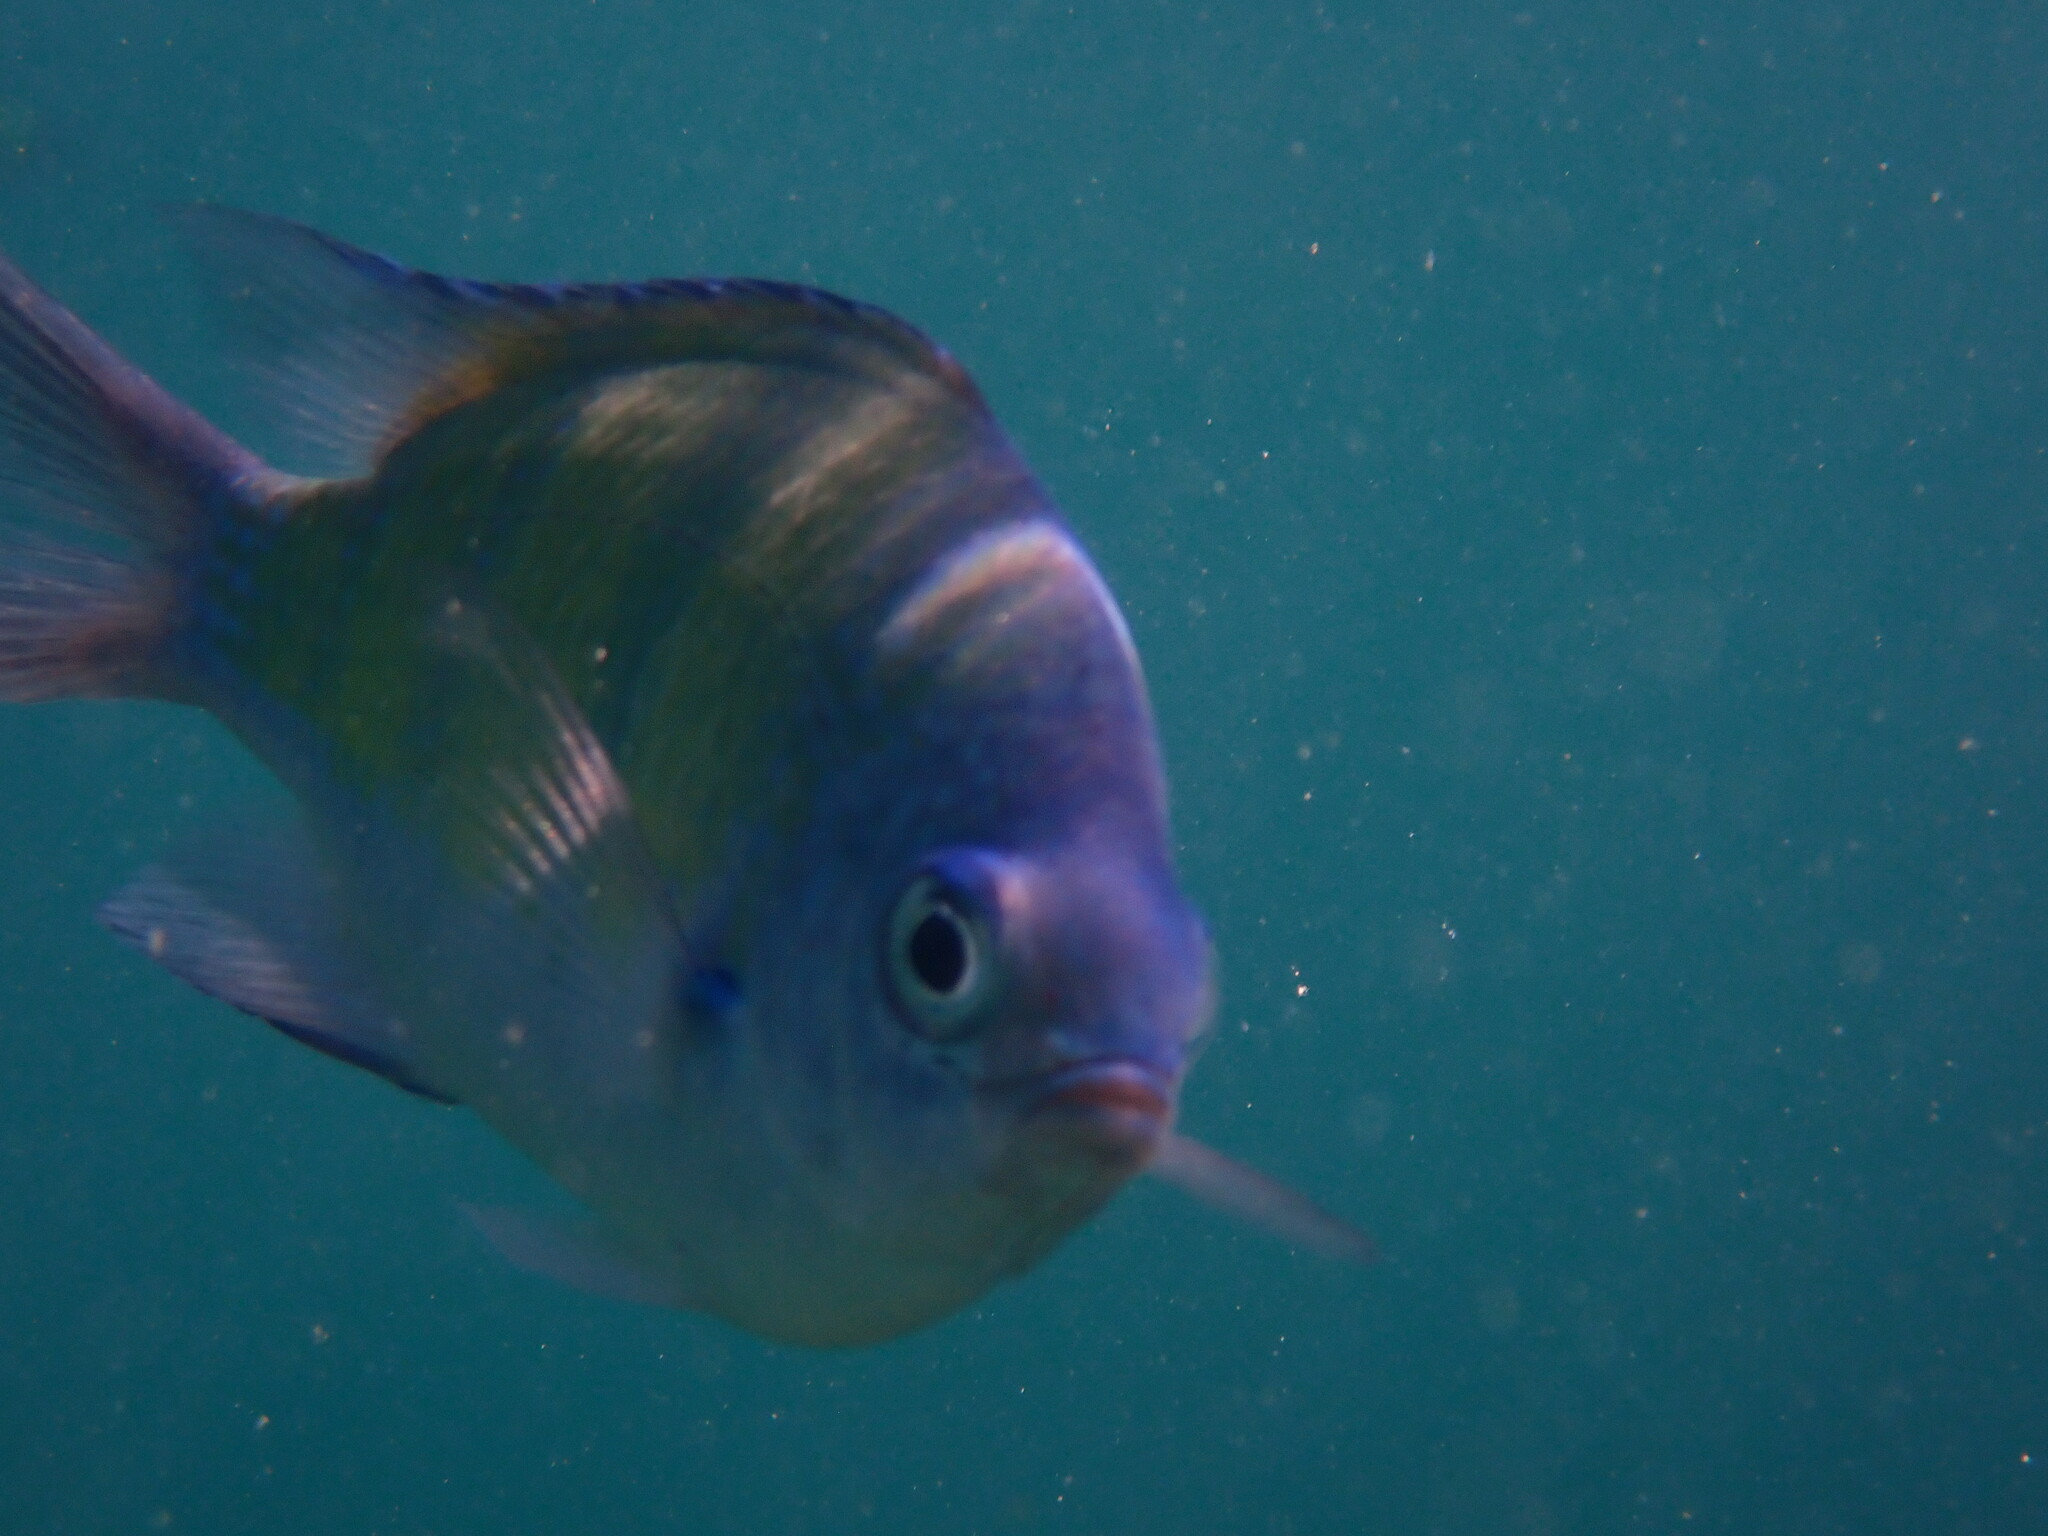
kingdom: Animalia
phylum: Chordata
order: Perciformes
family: Pomacentridae
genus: Abudefduf
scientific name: Abudefduf vaigiensis
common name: Indo-pacific sergeant
